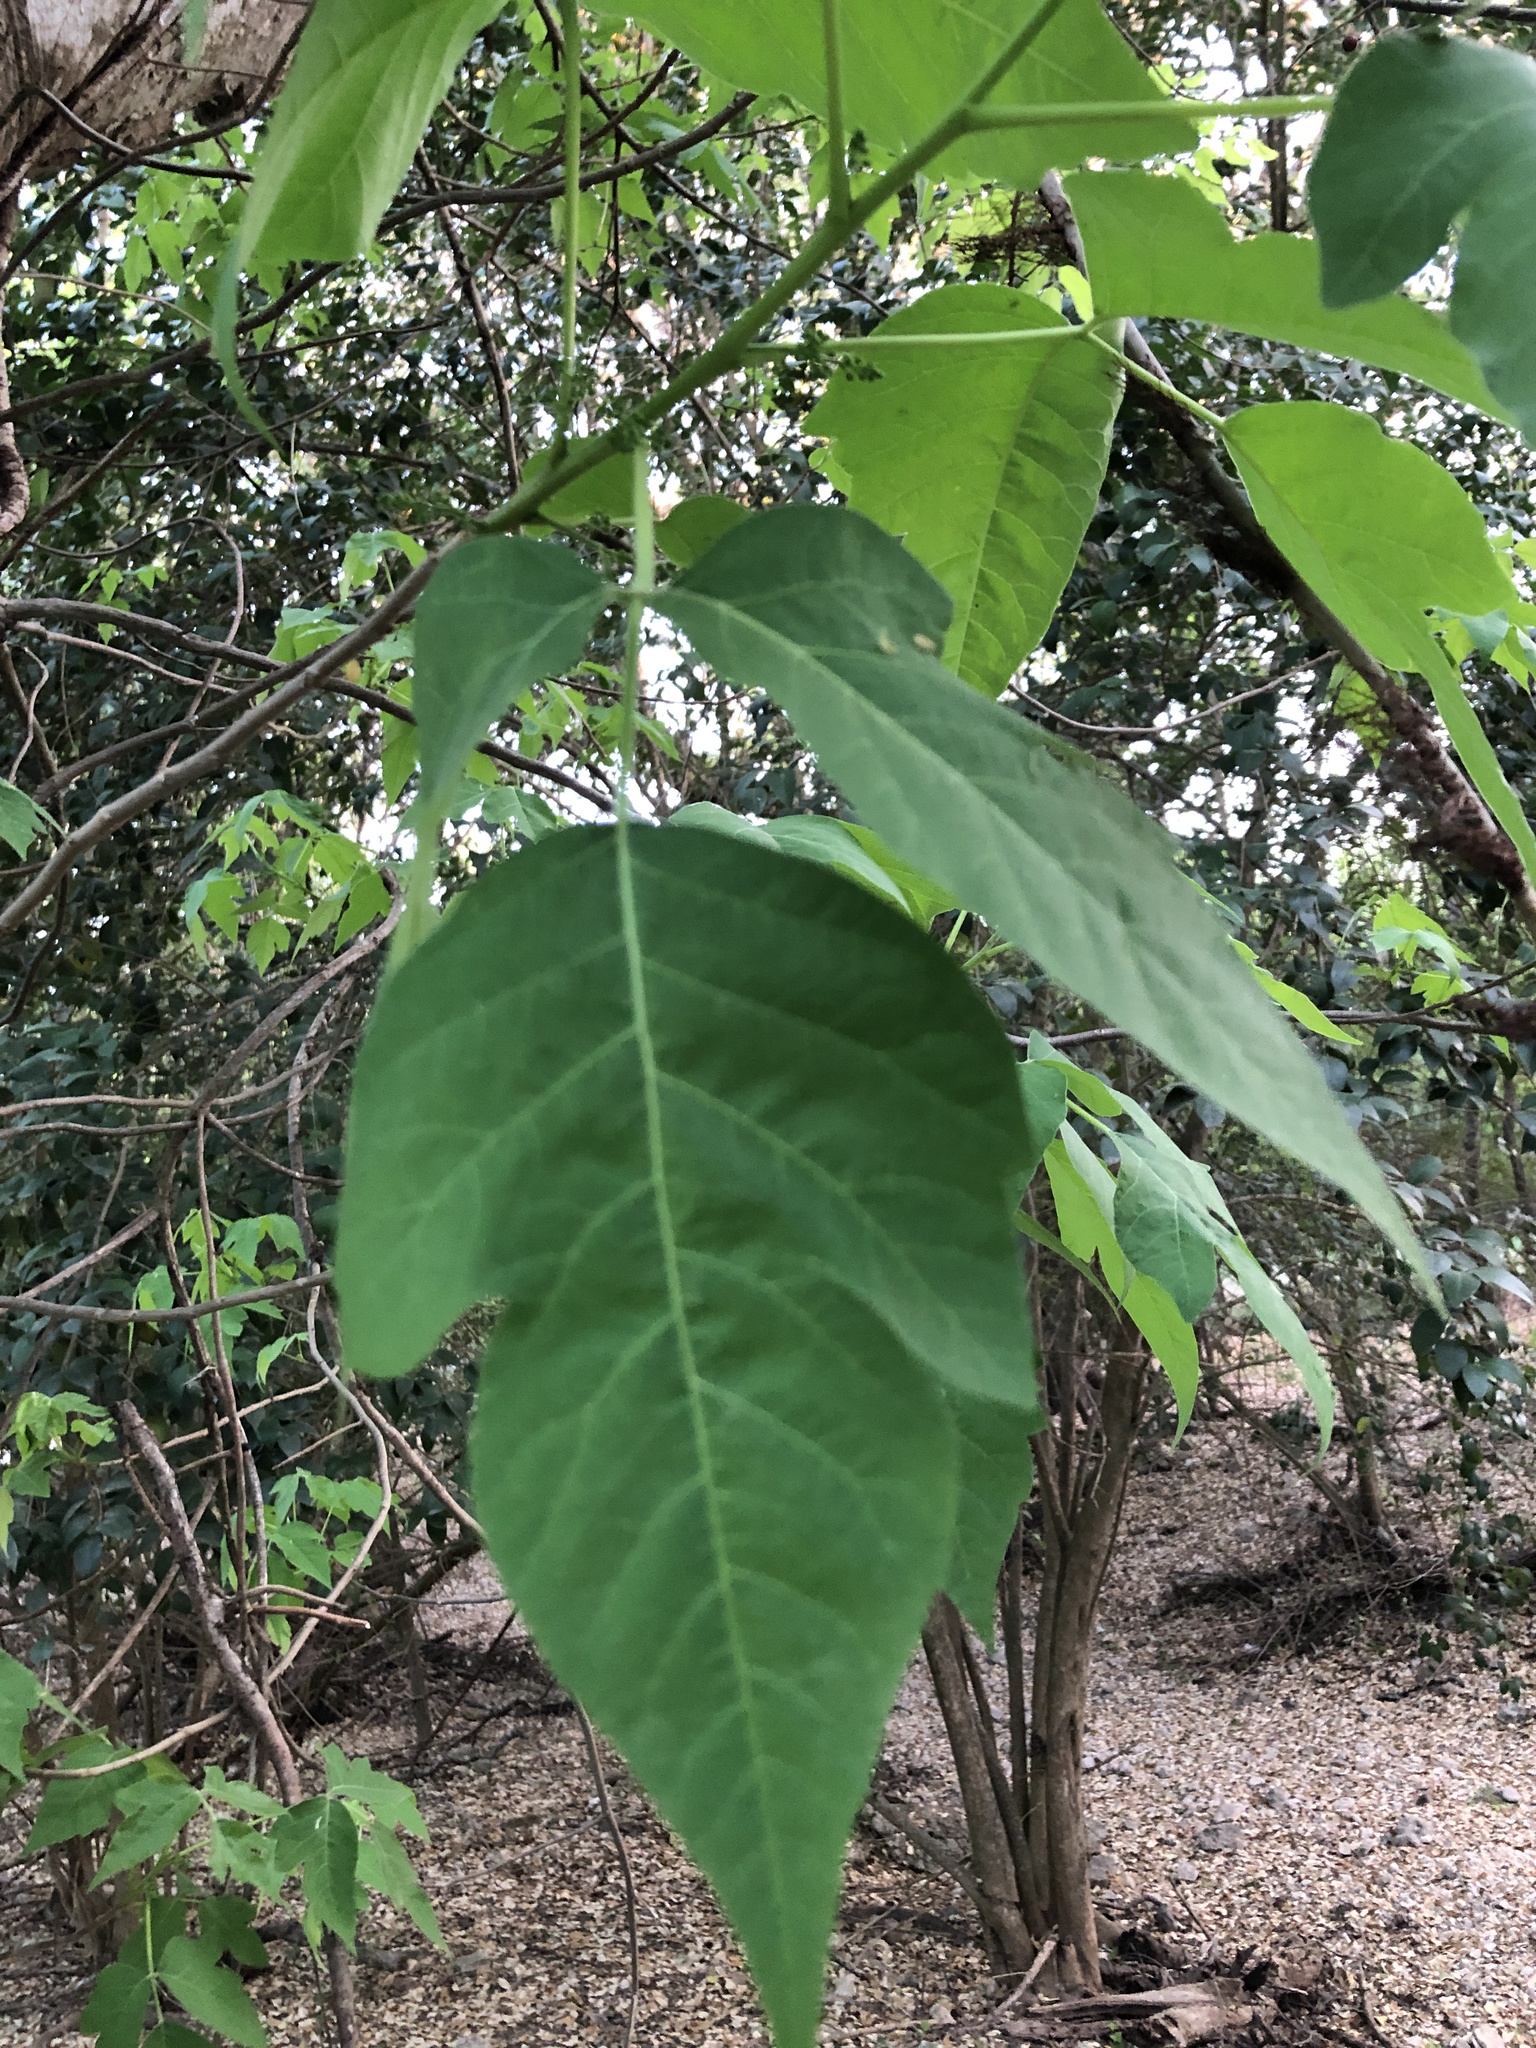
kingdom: Plantae
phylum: Tracheophyta
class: Magnoliopsida
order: Sapindales
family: Anacardiaceae
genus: Toxicodendron
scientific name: Toxicodendron radicans
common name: Poison ivy
